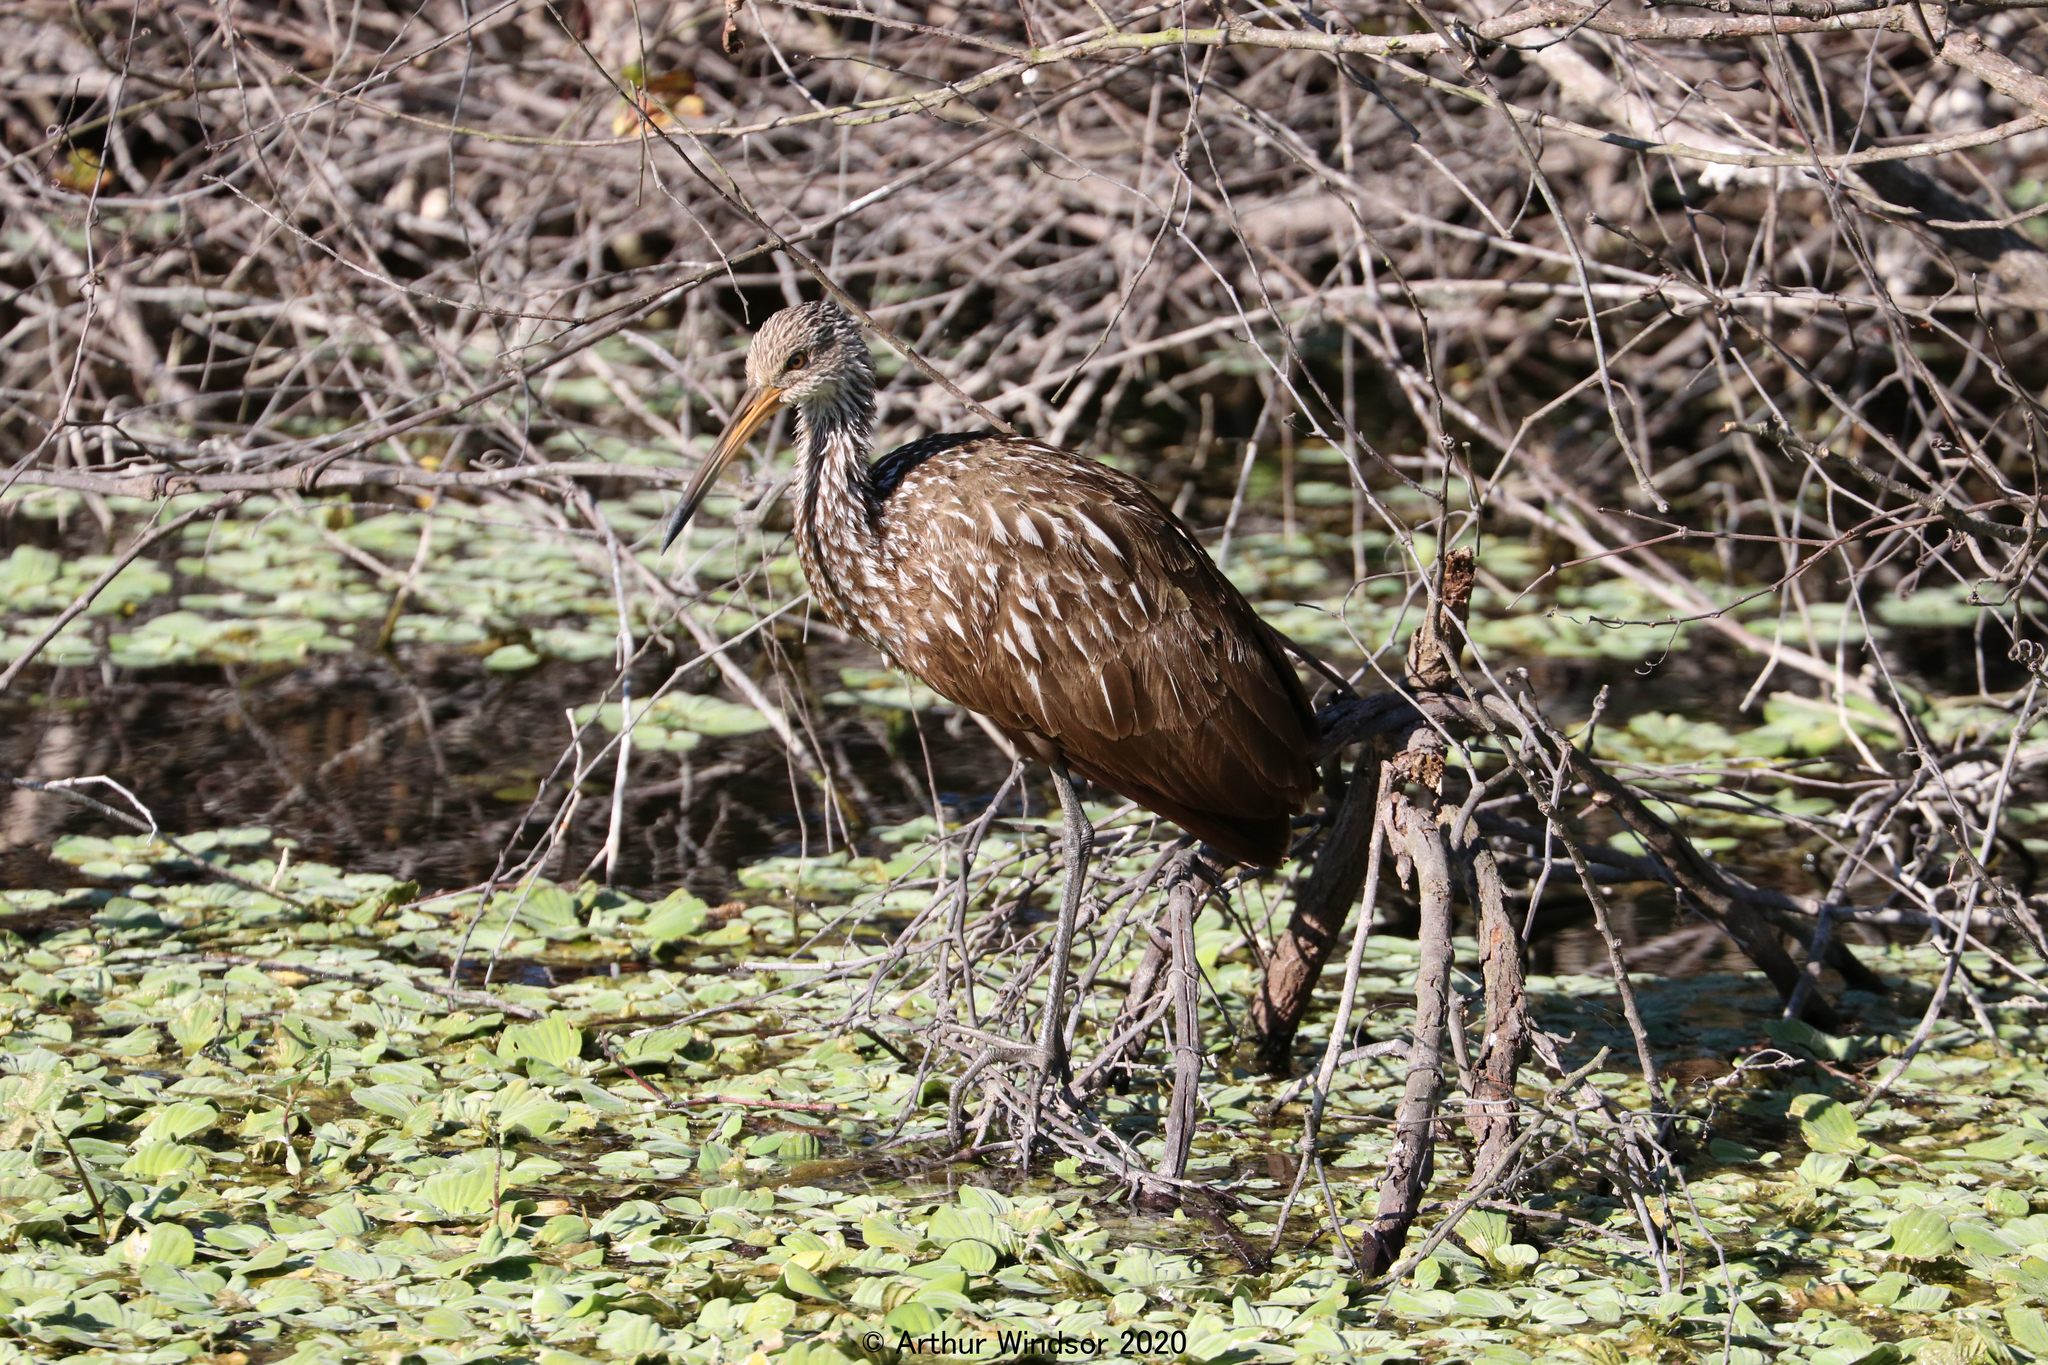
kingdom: Animalia
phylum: Chordata
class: Aves
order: Gruiformes
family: Aramidae
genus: Aramus
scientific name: Aramus guarauna
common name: Limpkin
